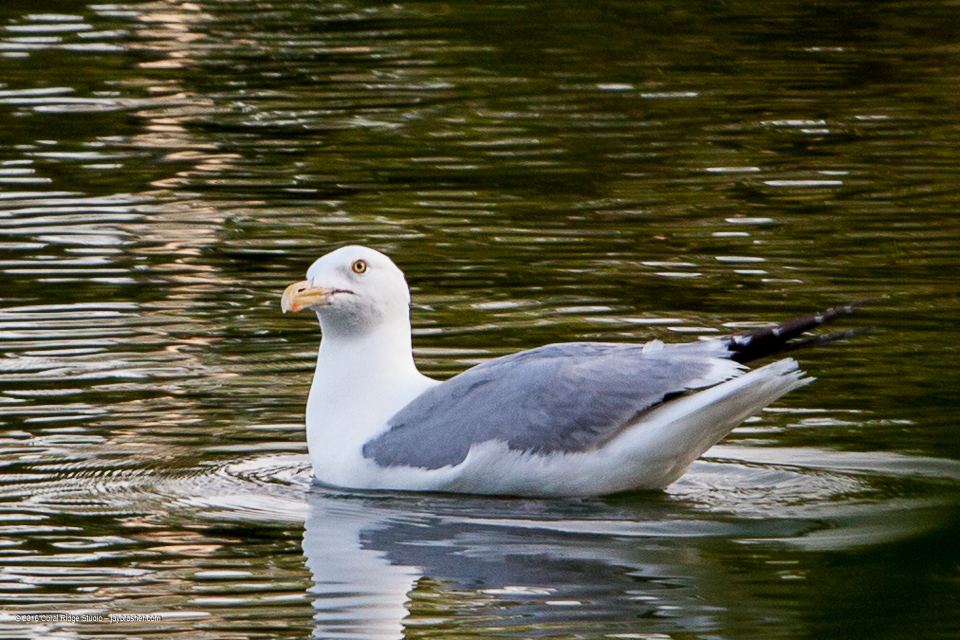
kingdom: Animalia
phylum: Chordata
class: Aves
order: Charadriiformes
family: Laridae
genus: Larus
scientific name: Larus argentatus
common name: Herring gull
